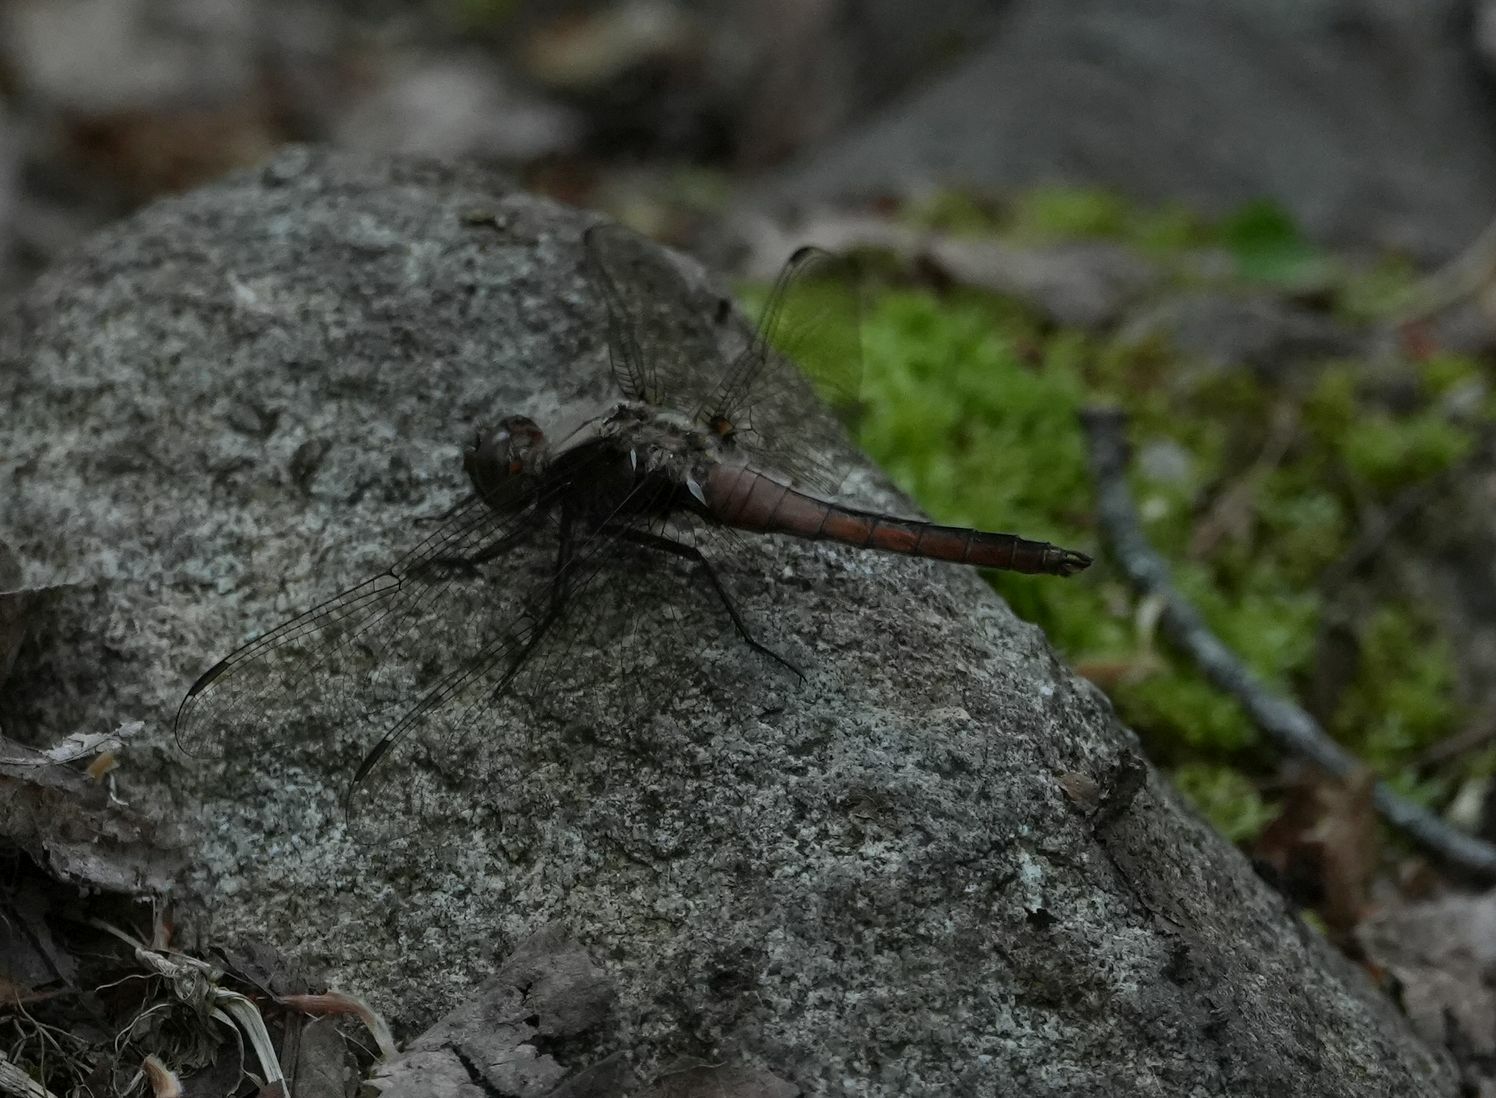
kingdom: Animalia
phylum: Arthropoda
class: Insecta
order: Odonata
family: Libellulidae
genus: Ladona
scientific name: Ladona julia
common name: Chalk-fronted corporal
